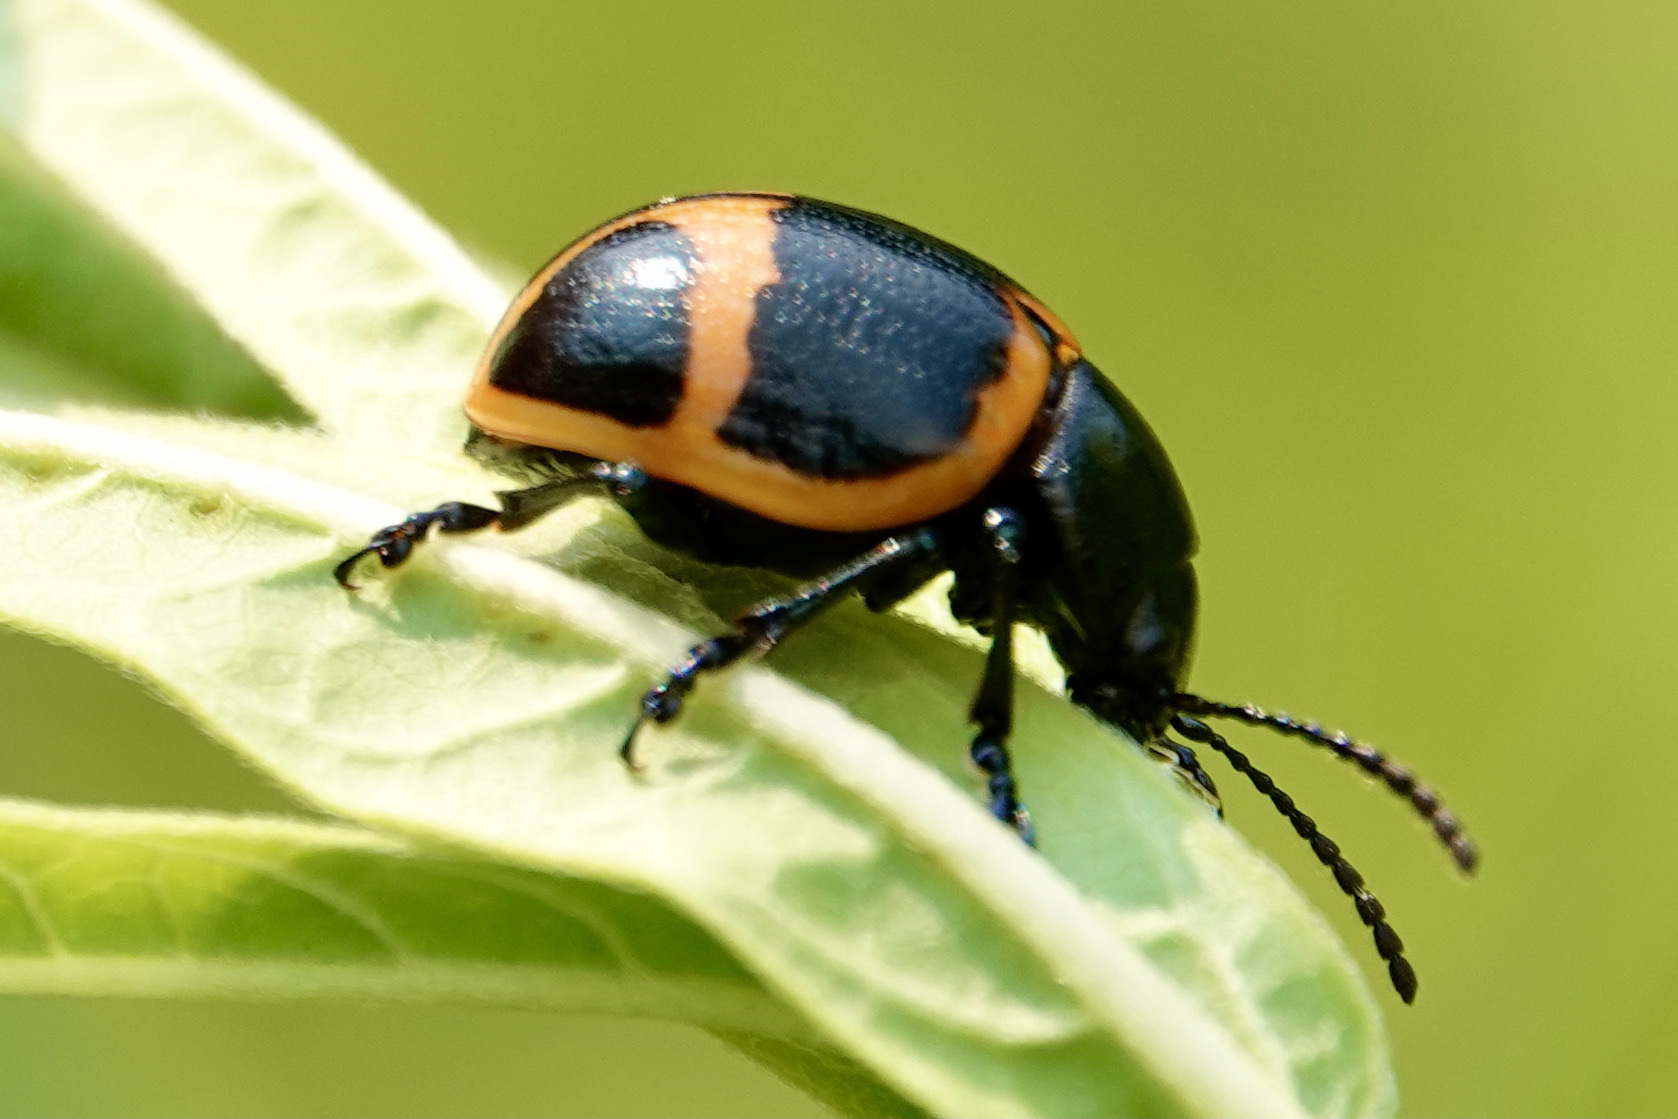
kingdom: Animalia
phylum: Arthropoda
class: Insecta
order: Coleoptera
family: Chrysomelidae
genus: Labidomera
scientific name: Labidomera clivicollis
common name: Swamp milkweed leaf beetle
